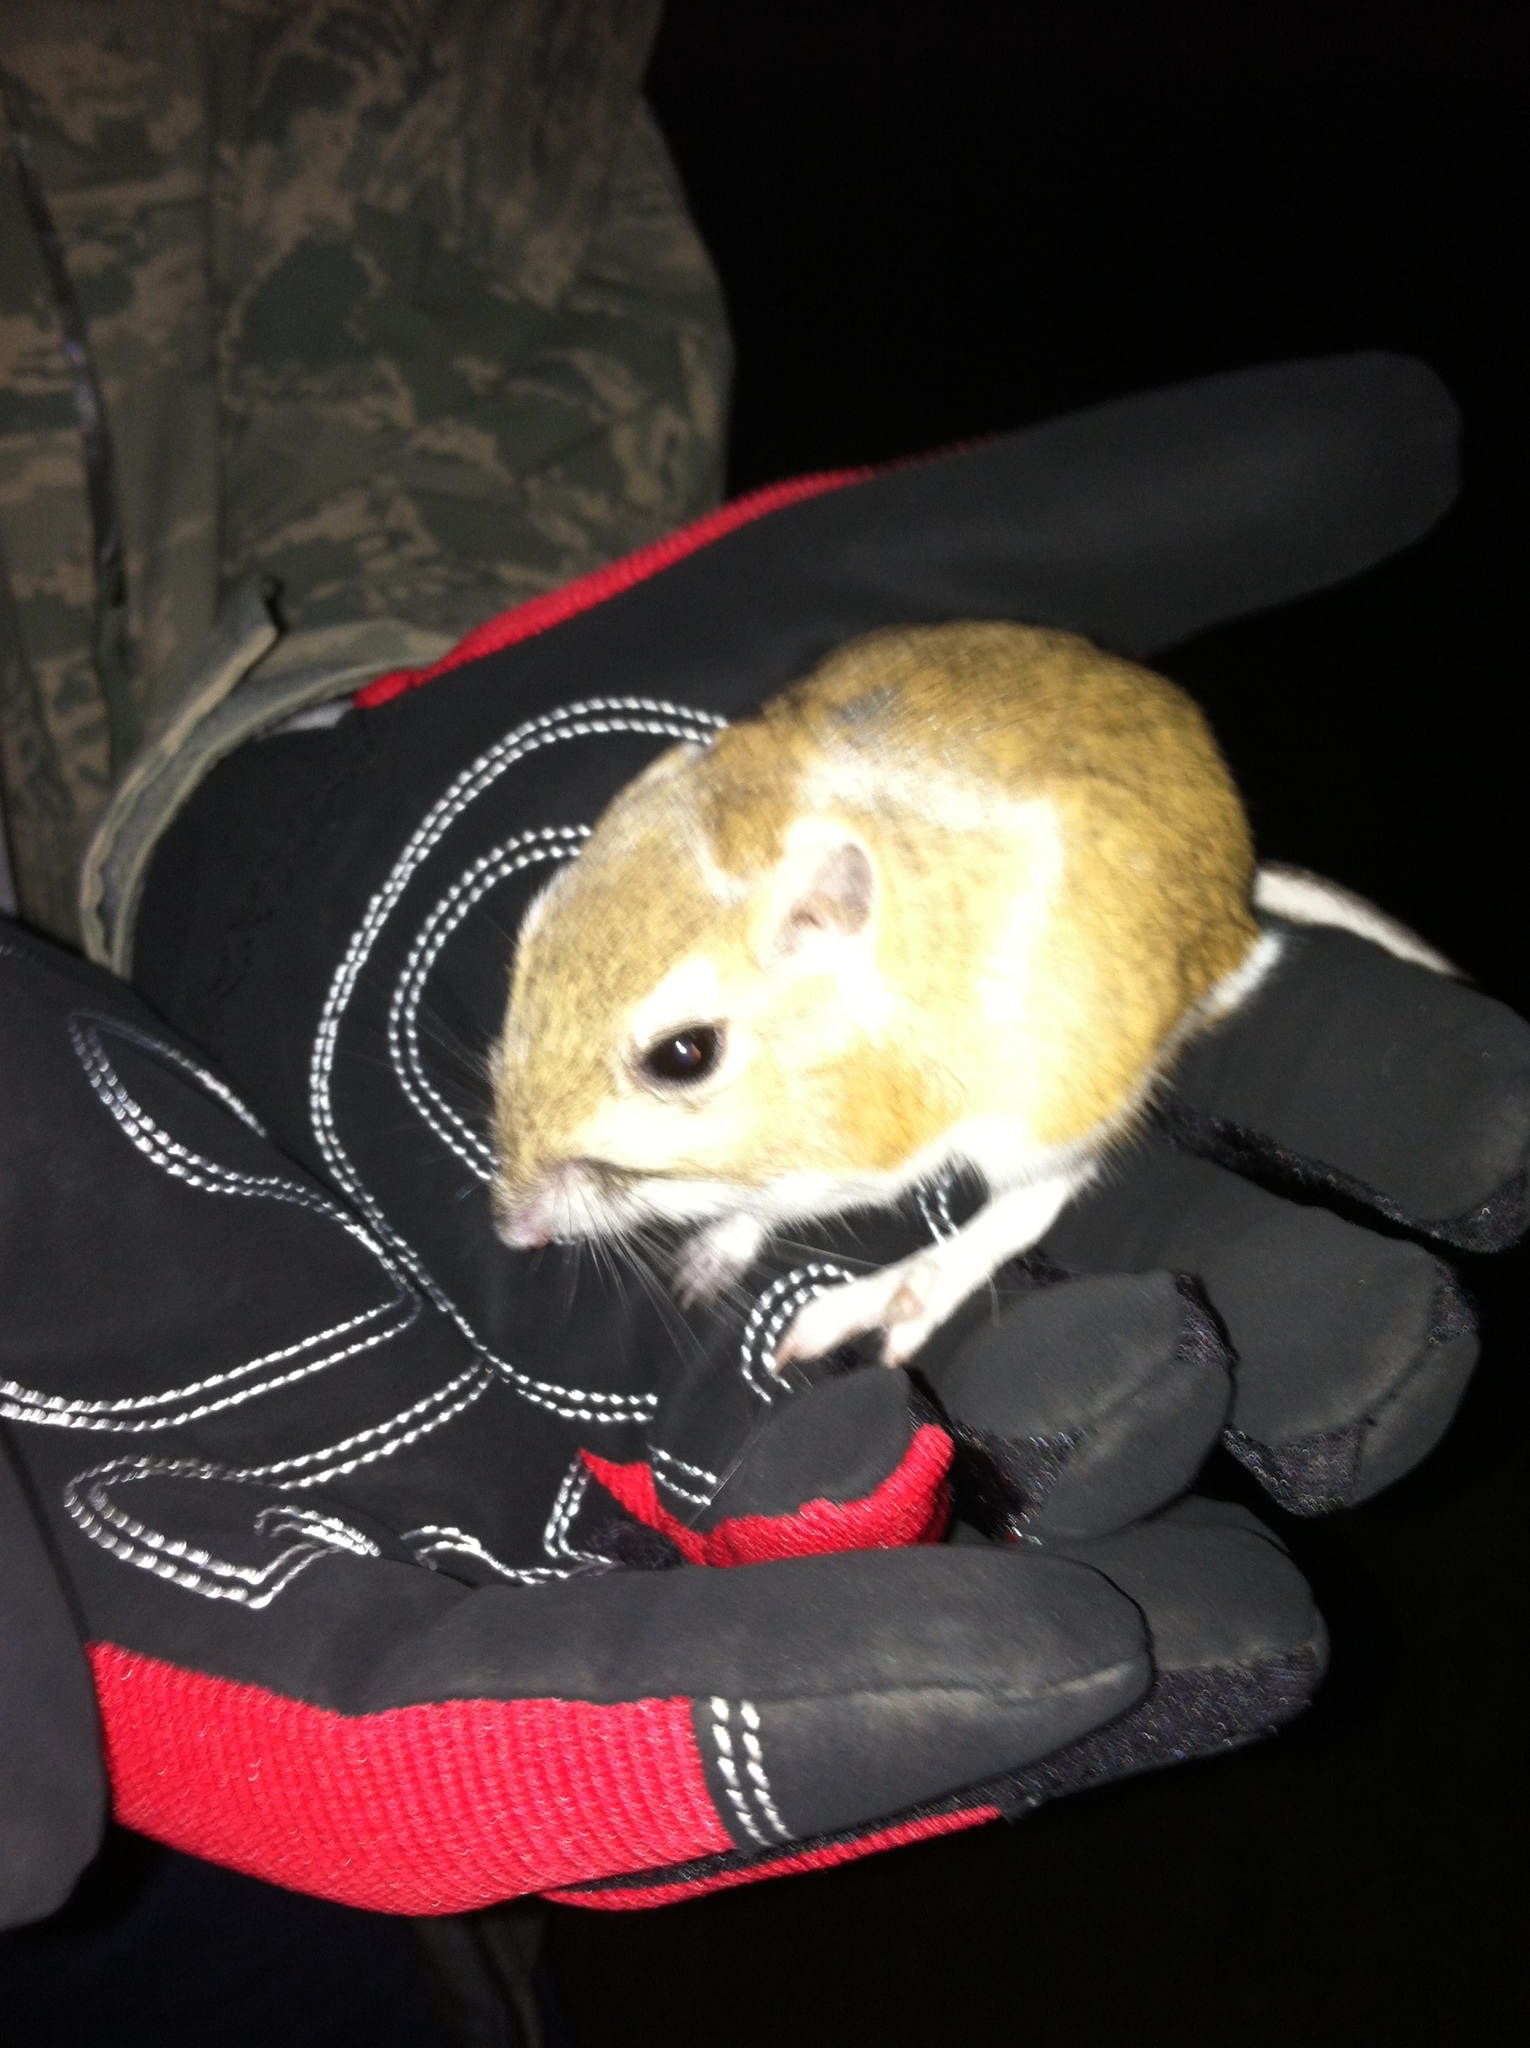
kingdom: Animalia
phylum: Chordata
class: Mammalia
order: Rodentia
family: Heteromyidae
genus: Dipodomys
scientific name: Dipodomys ordii
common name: Ord's kangaroo rat
